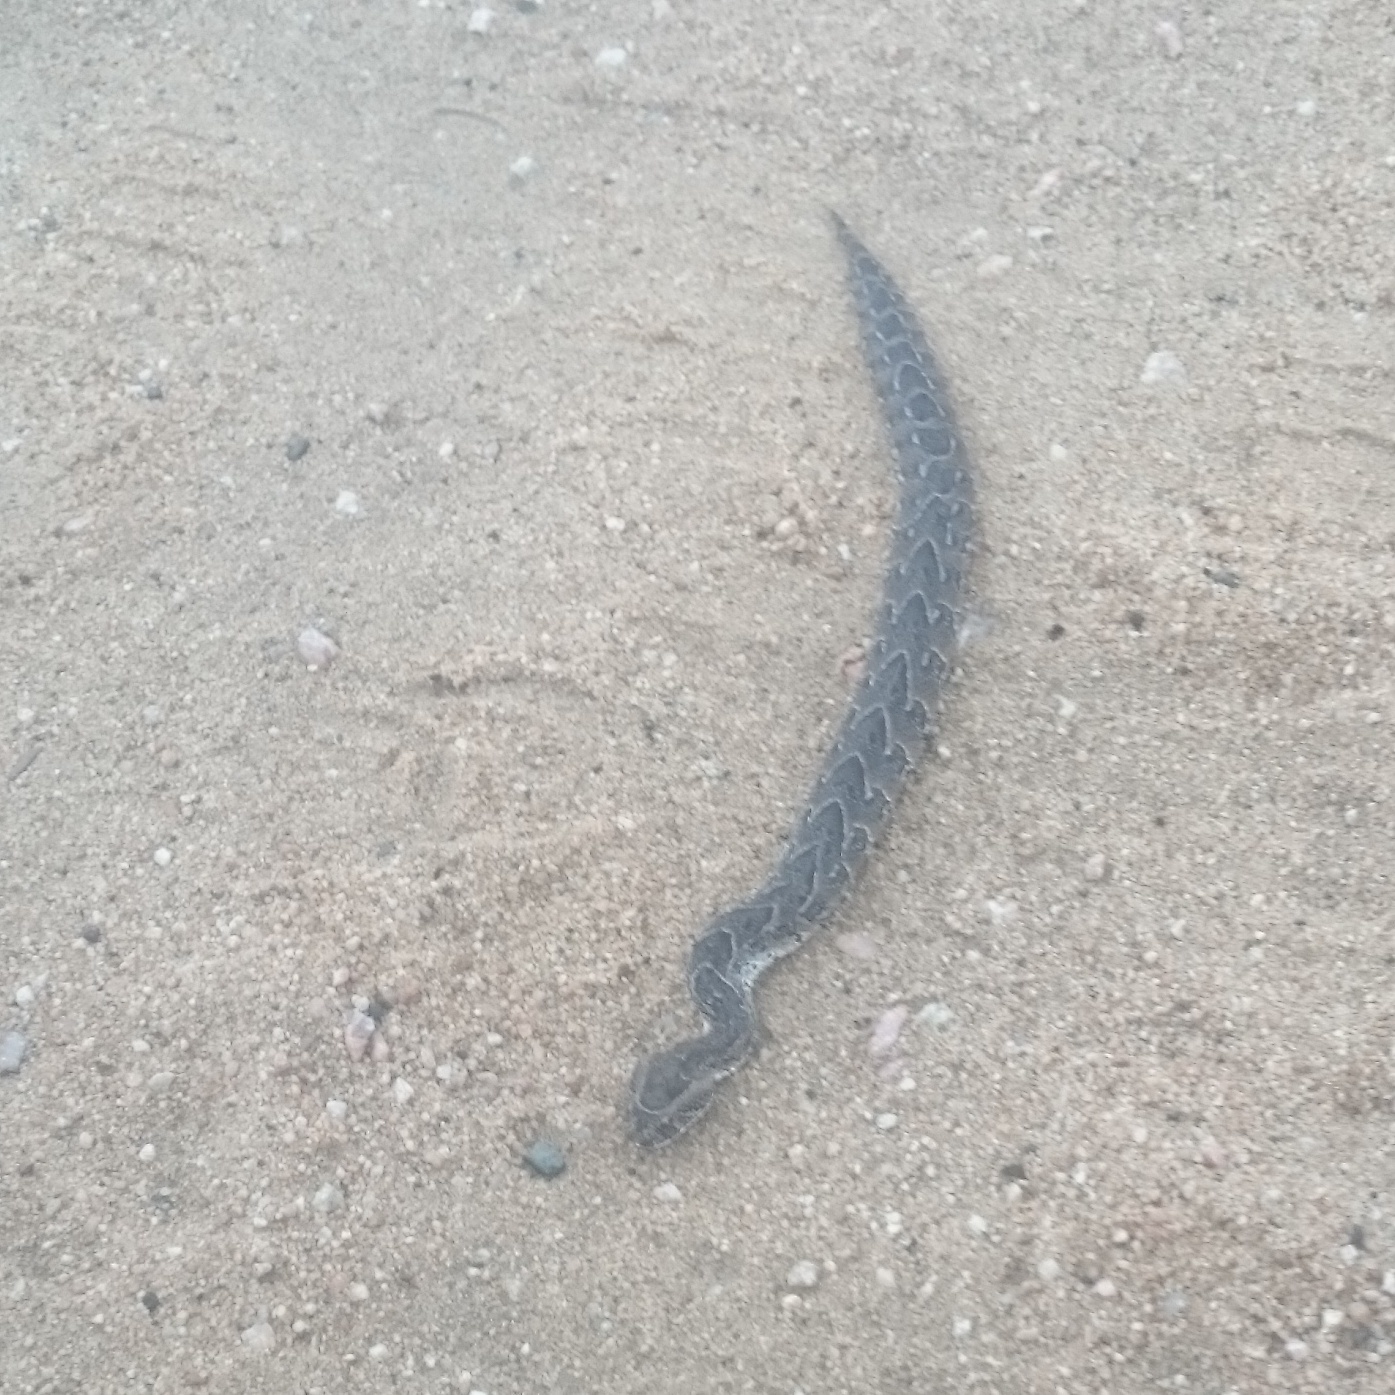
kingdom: Animalia
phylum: Chordata
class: Squamata
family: Viperidae
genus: Bitis
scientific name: Bitis arietans
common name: Puff adder
